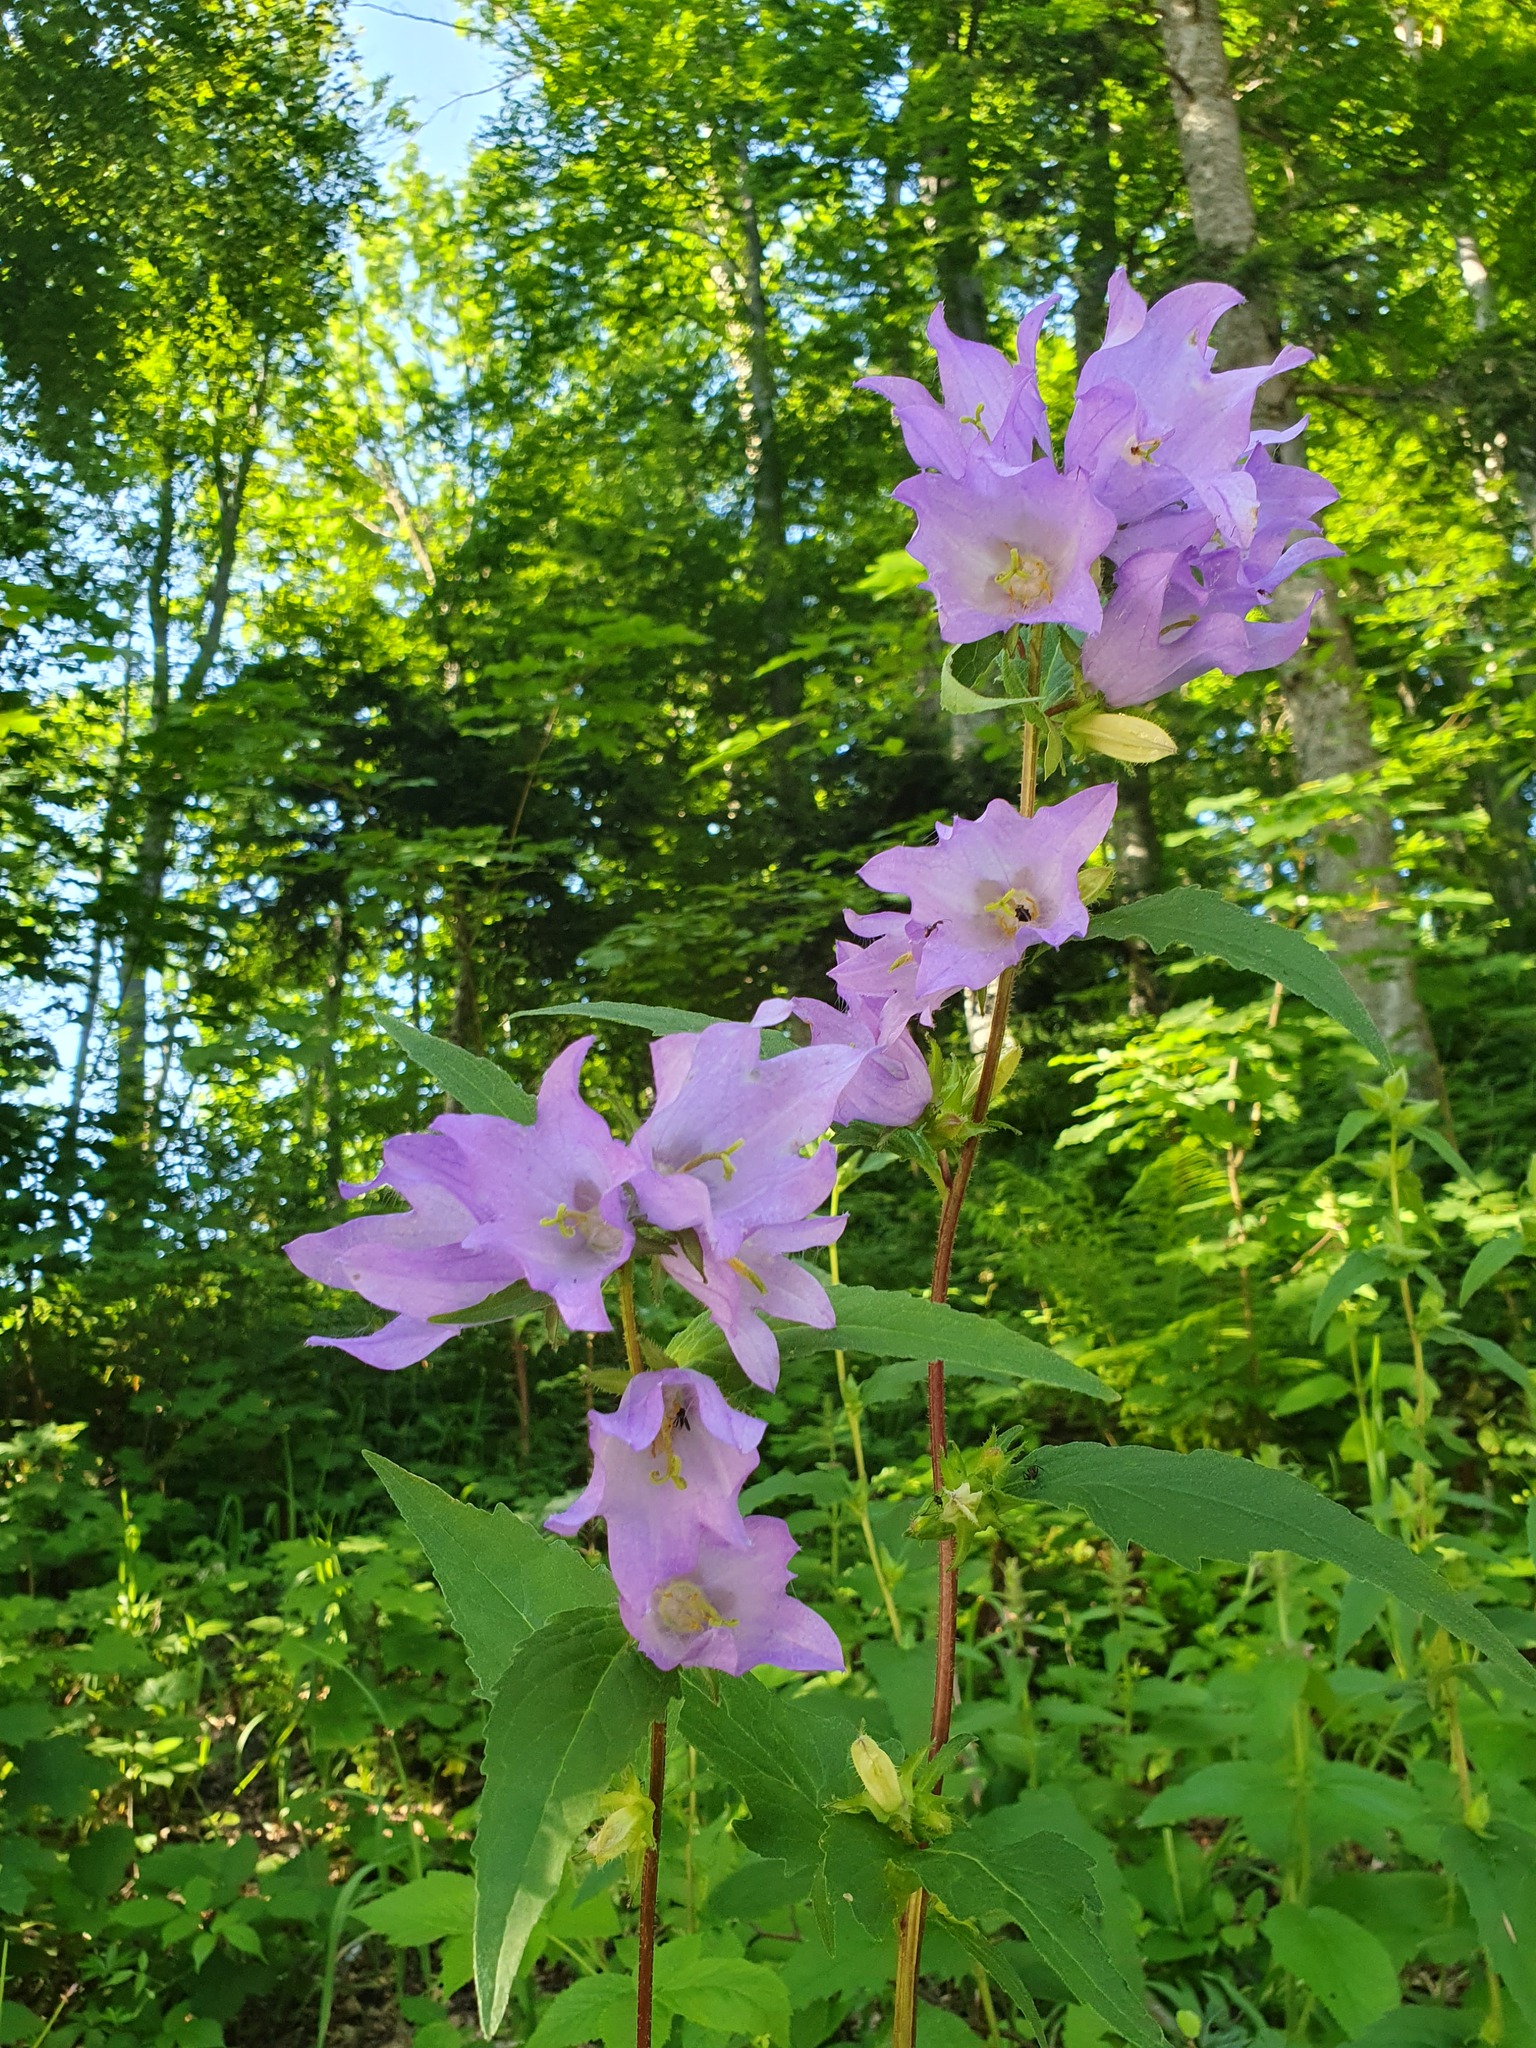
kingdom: Plantae
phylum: Tracheophyta
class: Magnoliopsida
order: Asterales
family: Campanulaceae
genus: Campanula
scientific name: Campanula trachelium
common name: Nettle-leaved bellflower
